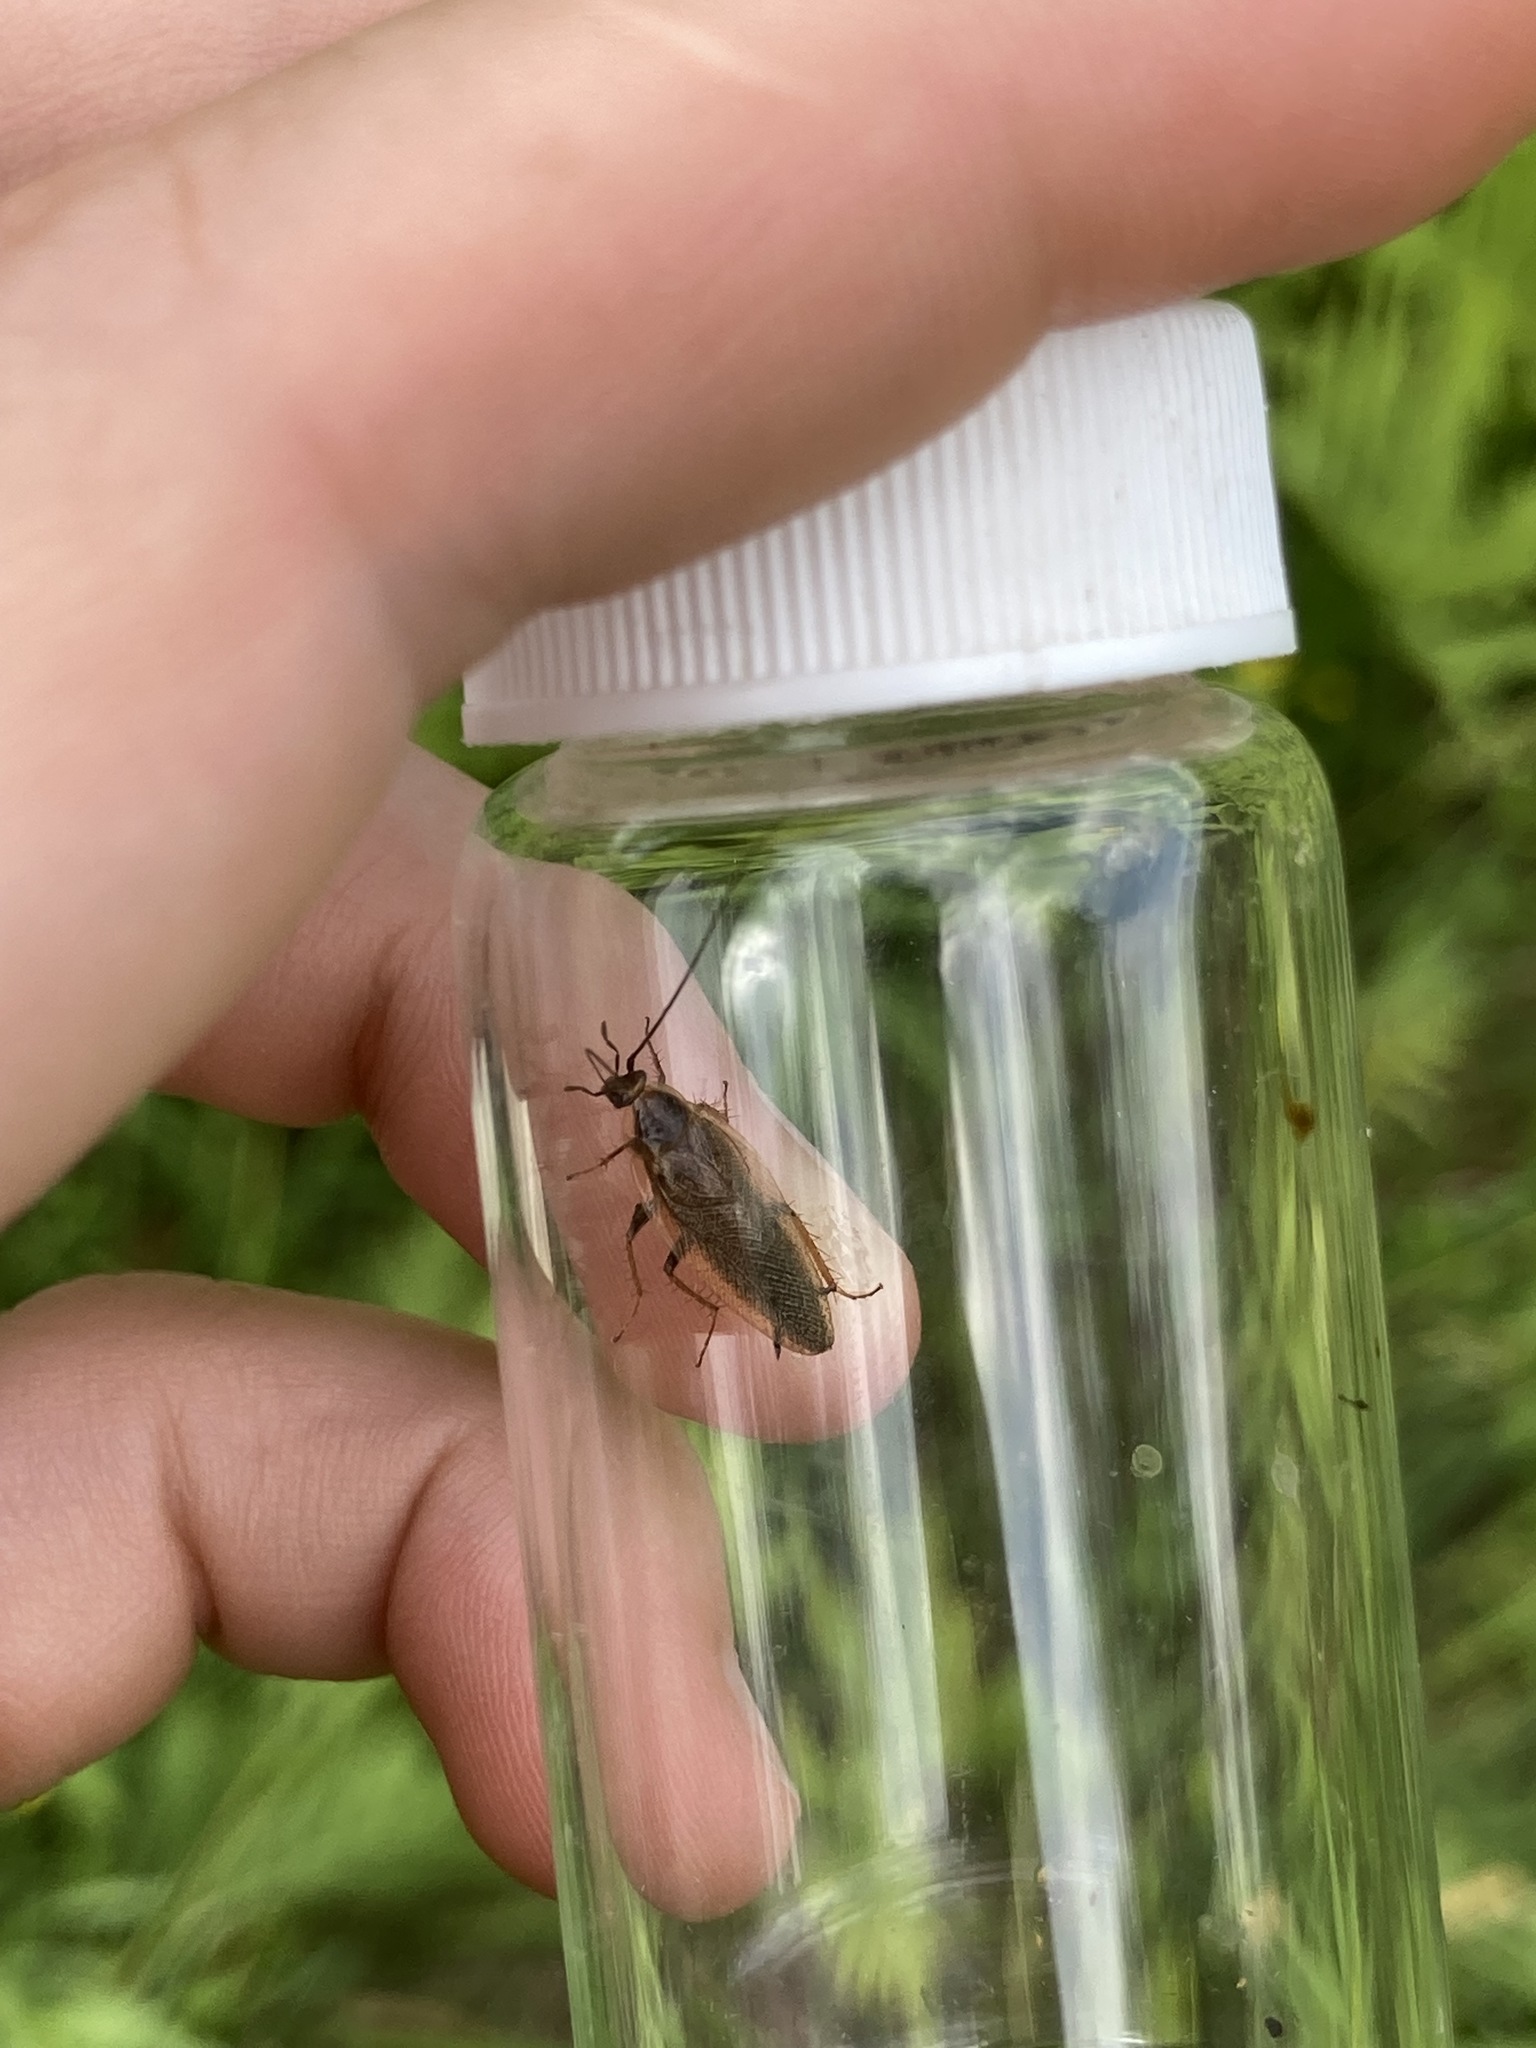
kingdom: Animalia
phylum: Arthropoda
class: Insecta
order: Blattodea
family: Ectobiidae
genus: Ectobius
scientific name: Ectobius lapponicus
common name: Dusky cockroach
